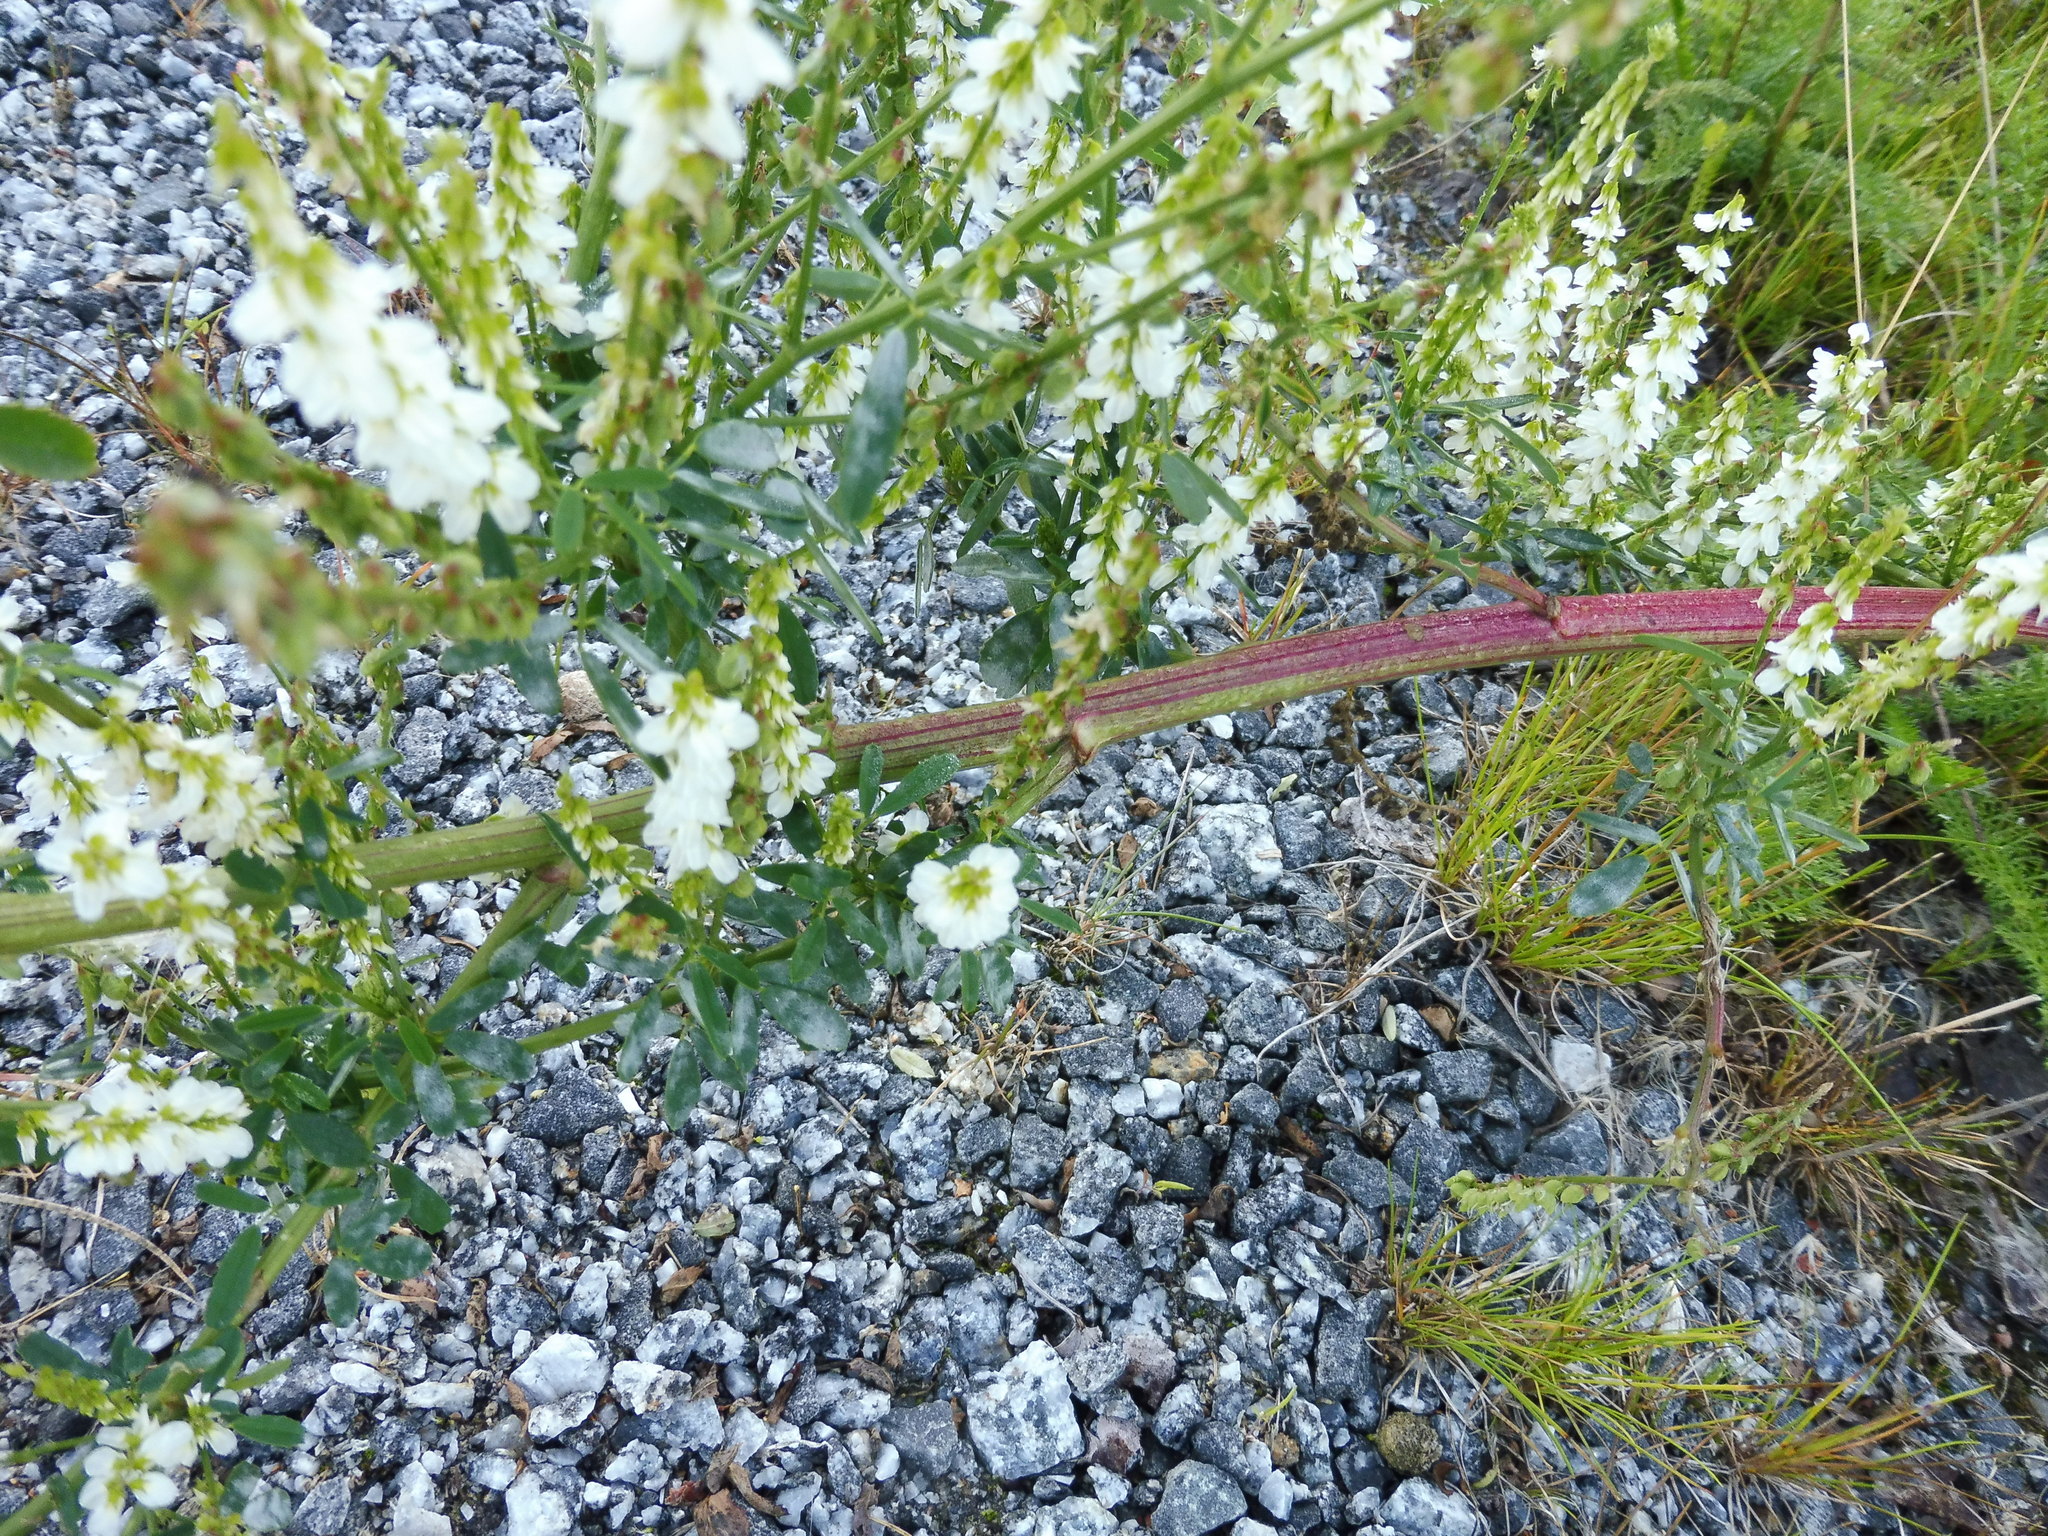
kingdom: Plantae
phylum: Tracheophyta
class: Magnoliopsida
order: Fabales
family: Fabaceae
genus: Melilotus
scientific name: Melilotus albus
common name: White melilot
